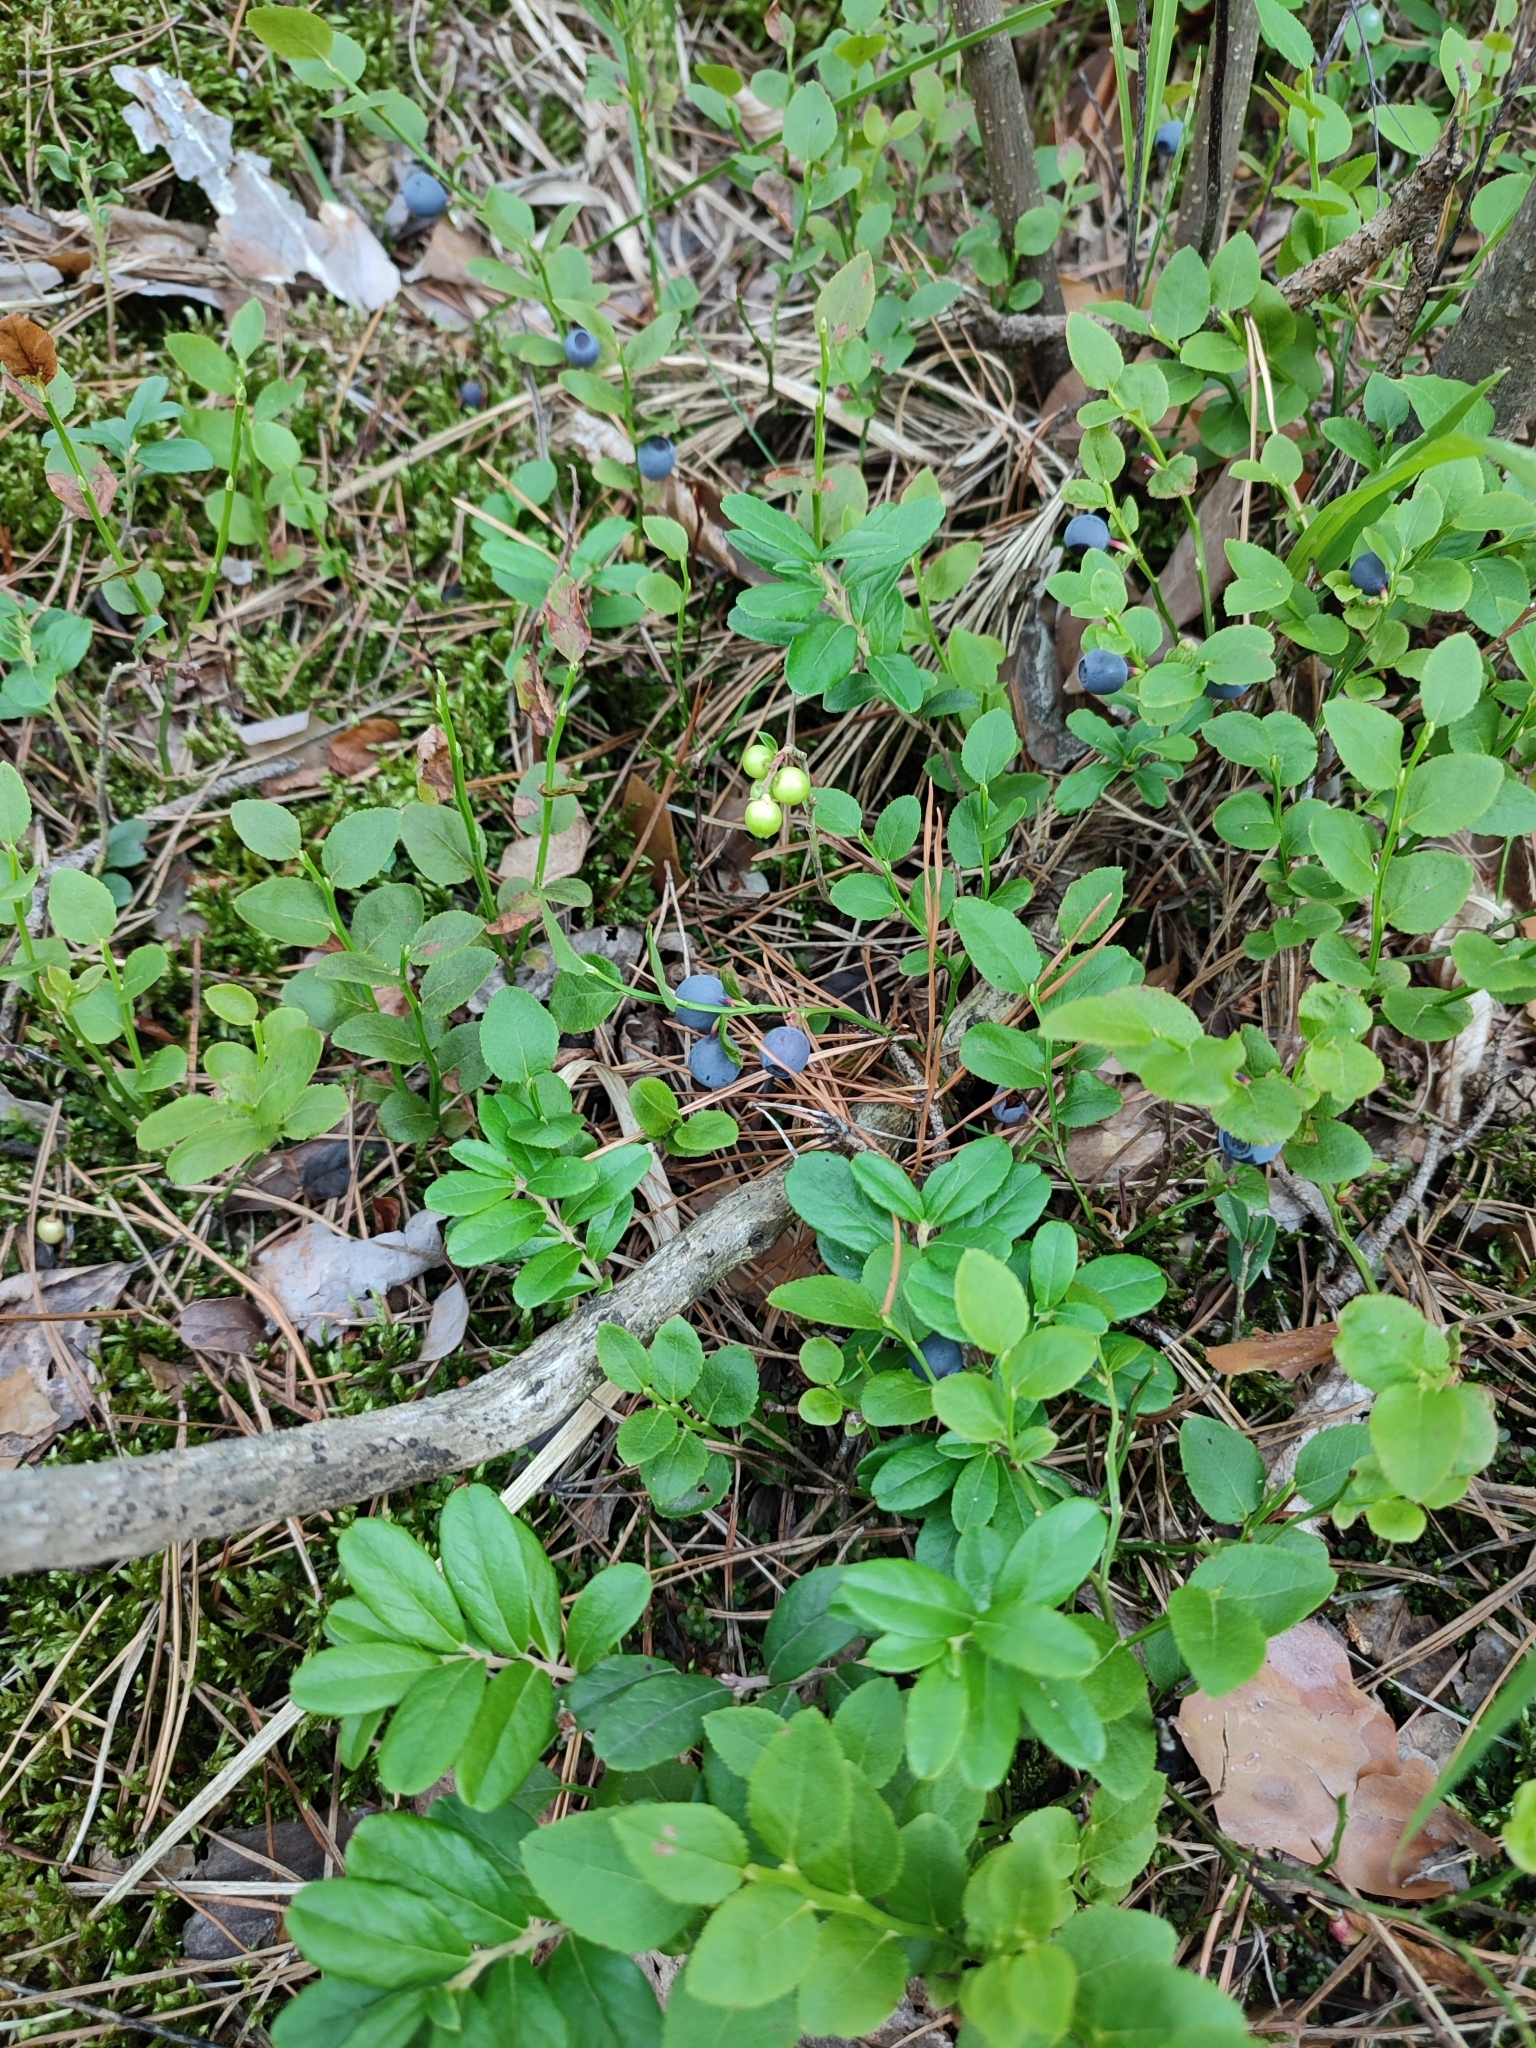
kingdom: Plantae
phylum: Tracheophyta
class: Magnoliopsida
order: Ericales
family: Ericaceae
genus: Vaccinium
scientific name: Vaccinium vitis-idaea
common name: Cowberry
